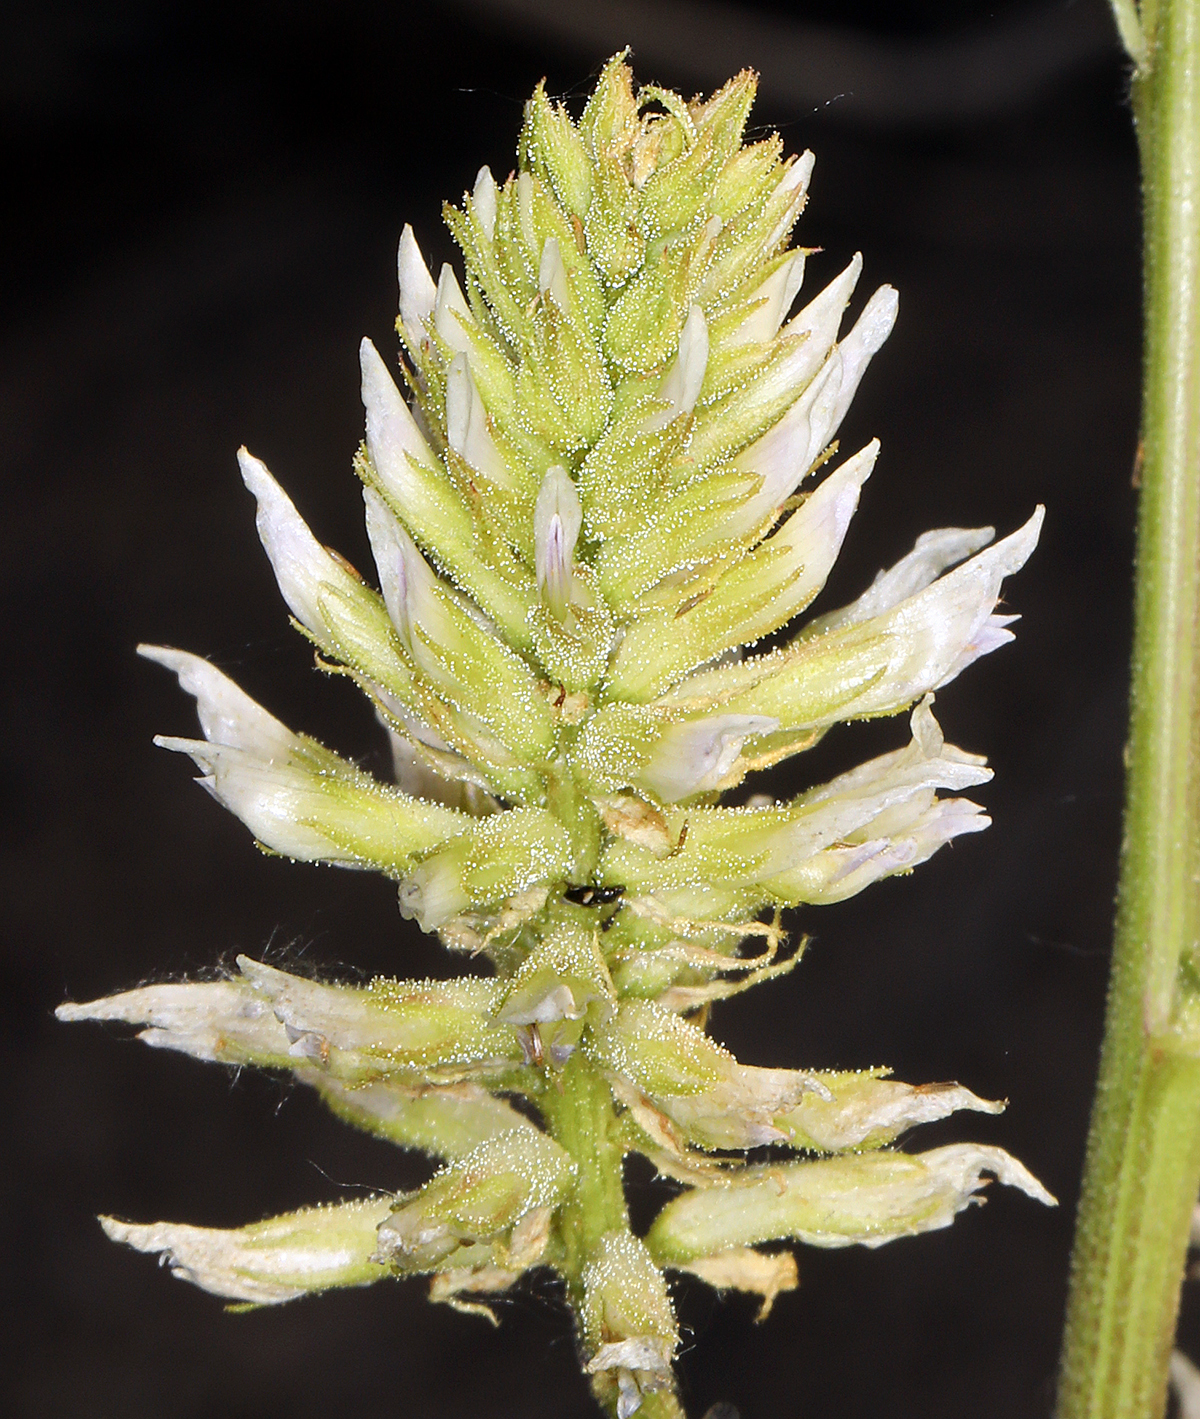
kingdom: Plantae
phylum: Tracheophyta
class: Magnoliopsida
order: Fabales
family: Fabaceae
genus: Glycyrrhiza
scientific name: Glycyrrhiza lepidota
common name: American liquorice
